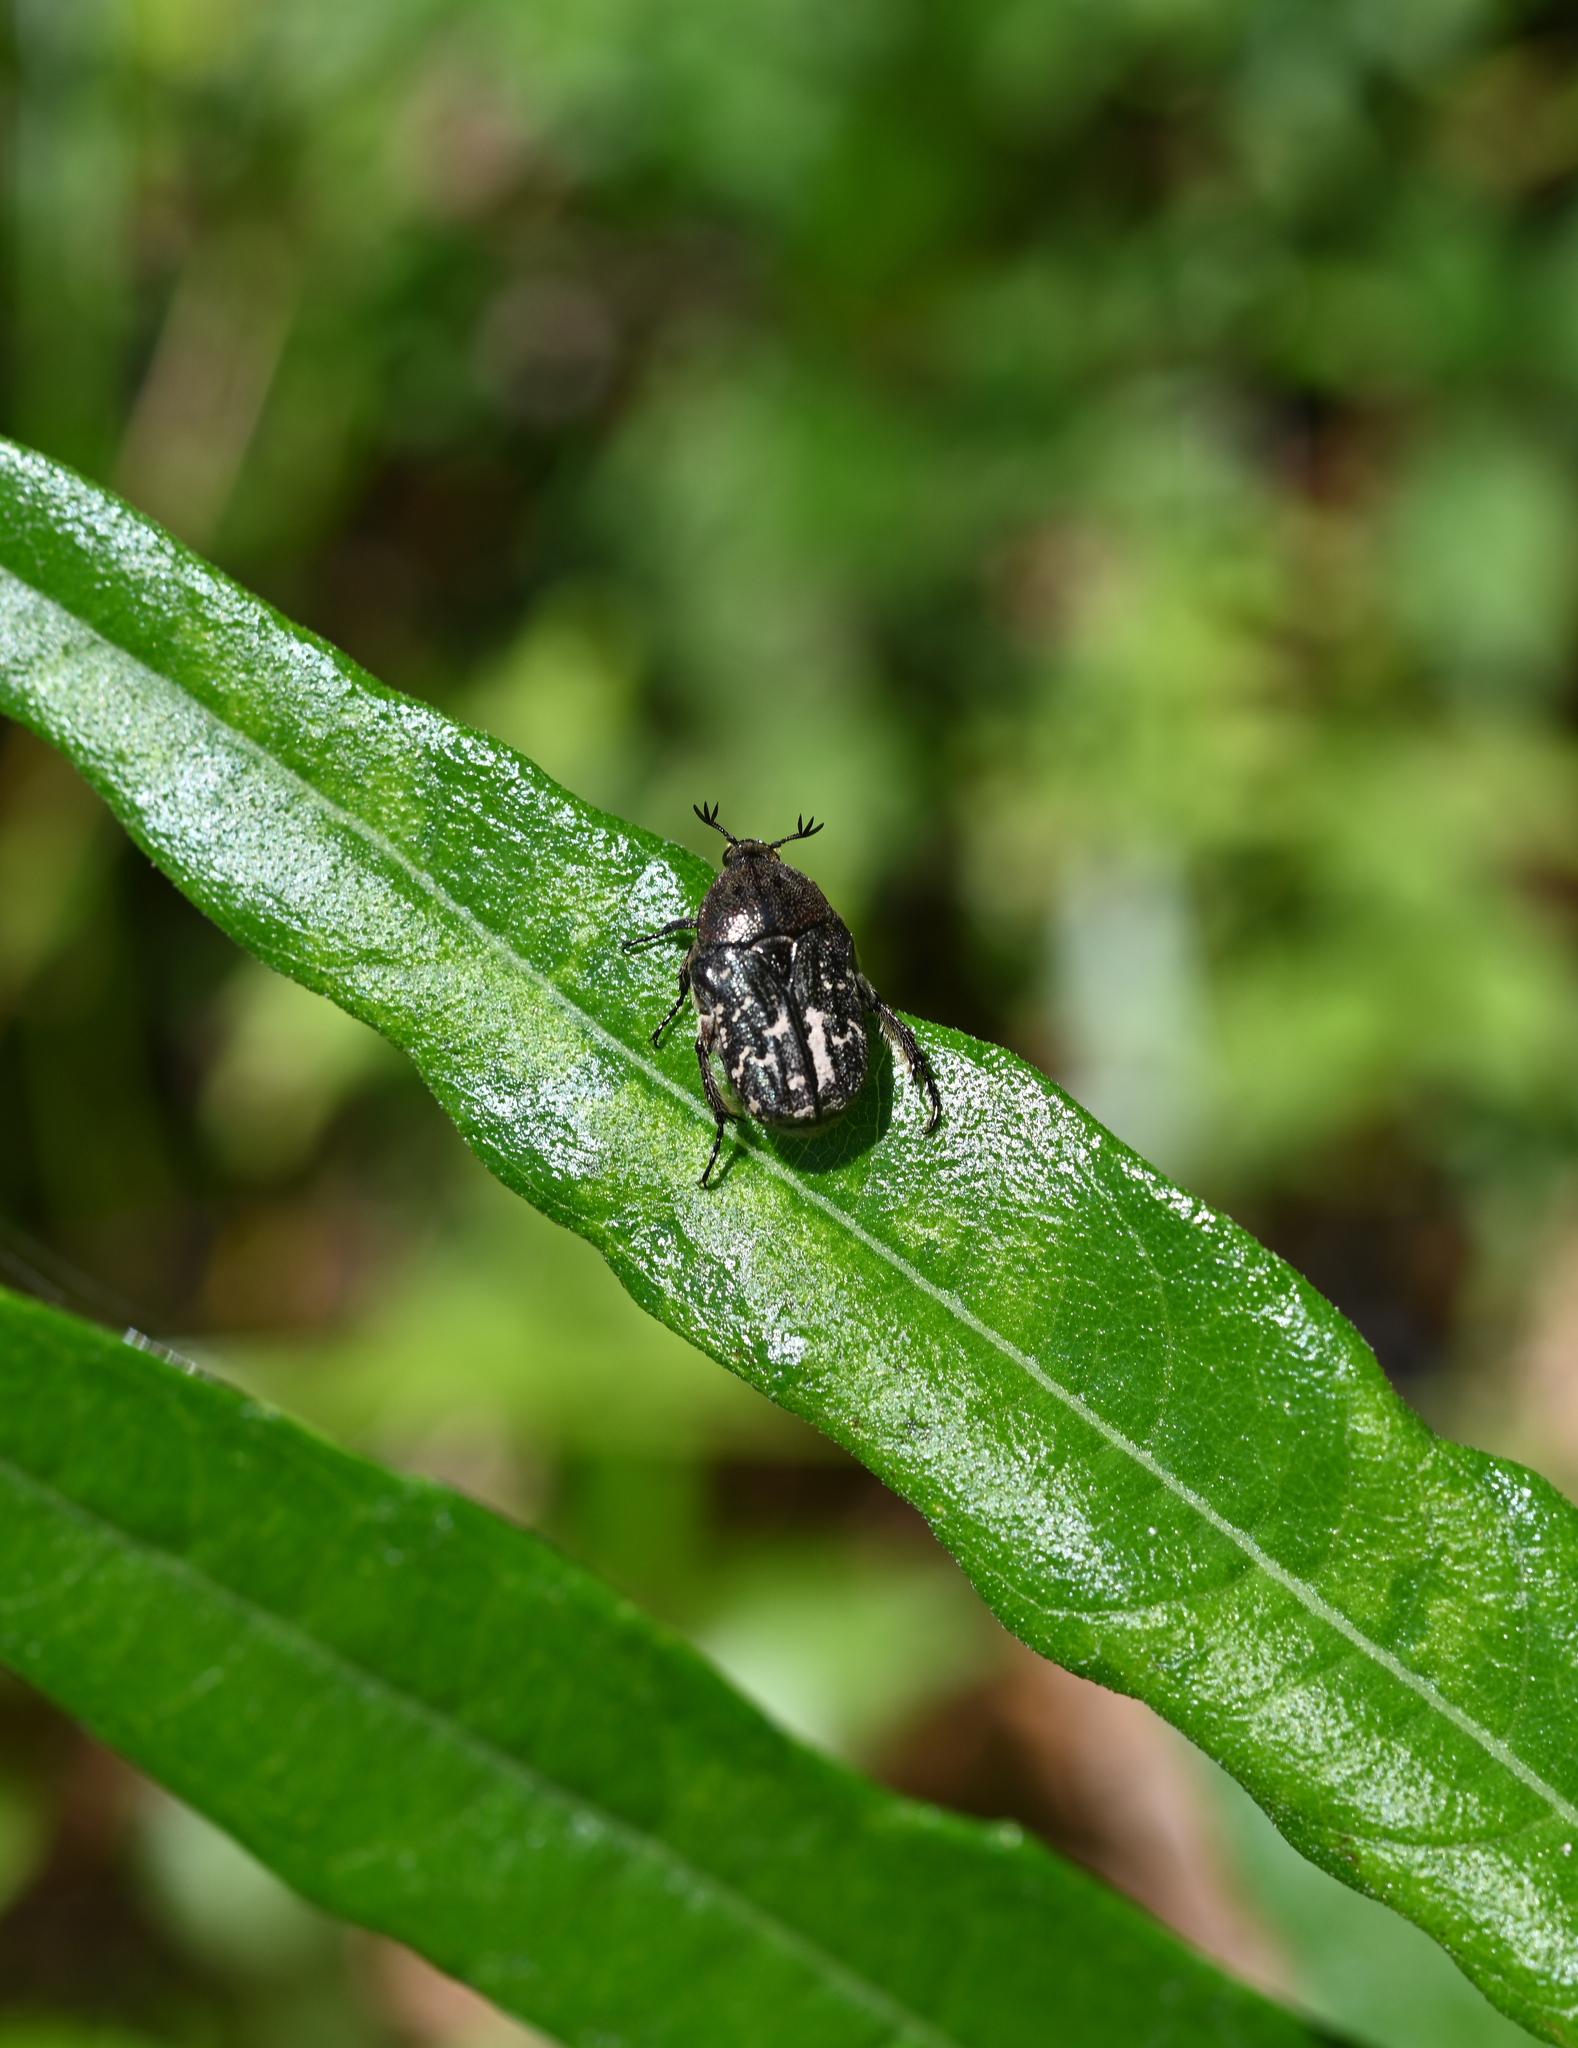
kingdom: Animalia
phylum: Arthropoda
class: Insecta
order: Coleoptera
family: Scarabaeidae
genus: Euphoria
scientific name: Euphoria sepulcralis
